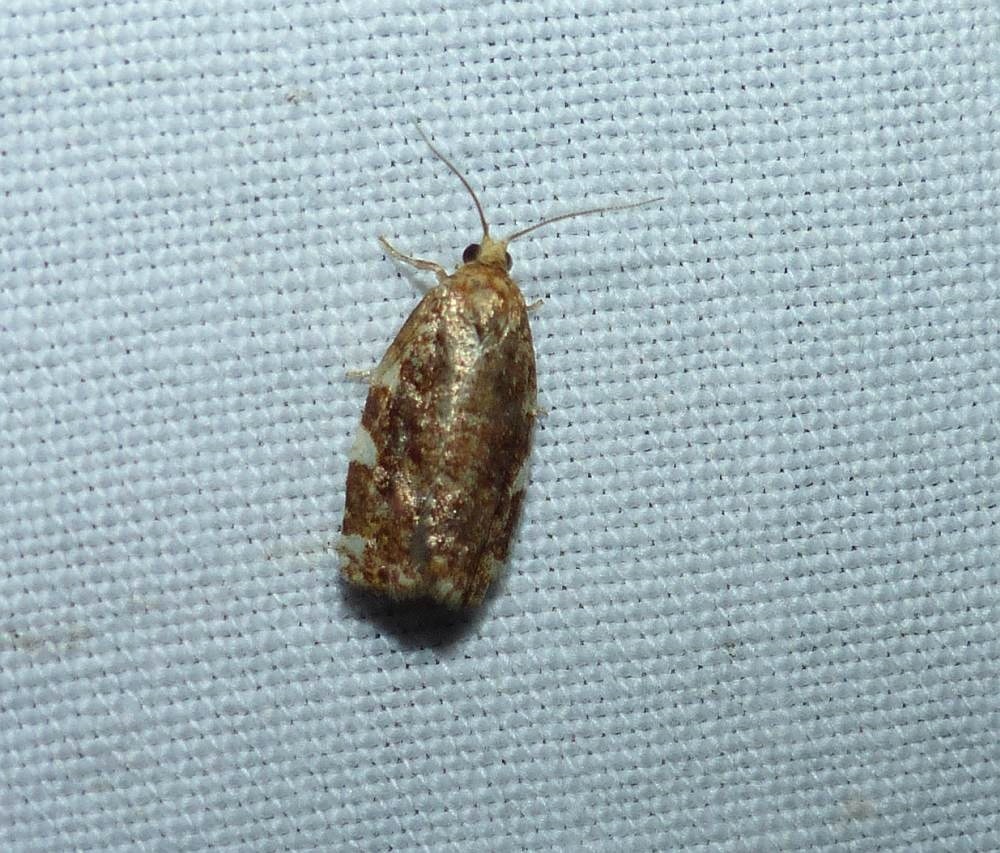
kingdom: Animalia
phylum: Arthropoda
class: Insecta
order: Lepidoptera
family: Tortricidae
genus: Archips
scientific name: Archips argyrospila
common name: Fruit-tree leafroller moth
